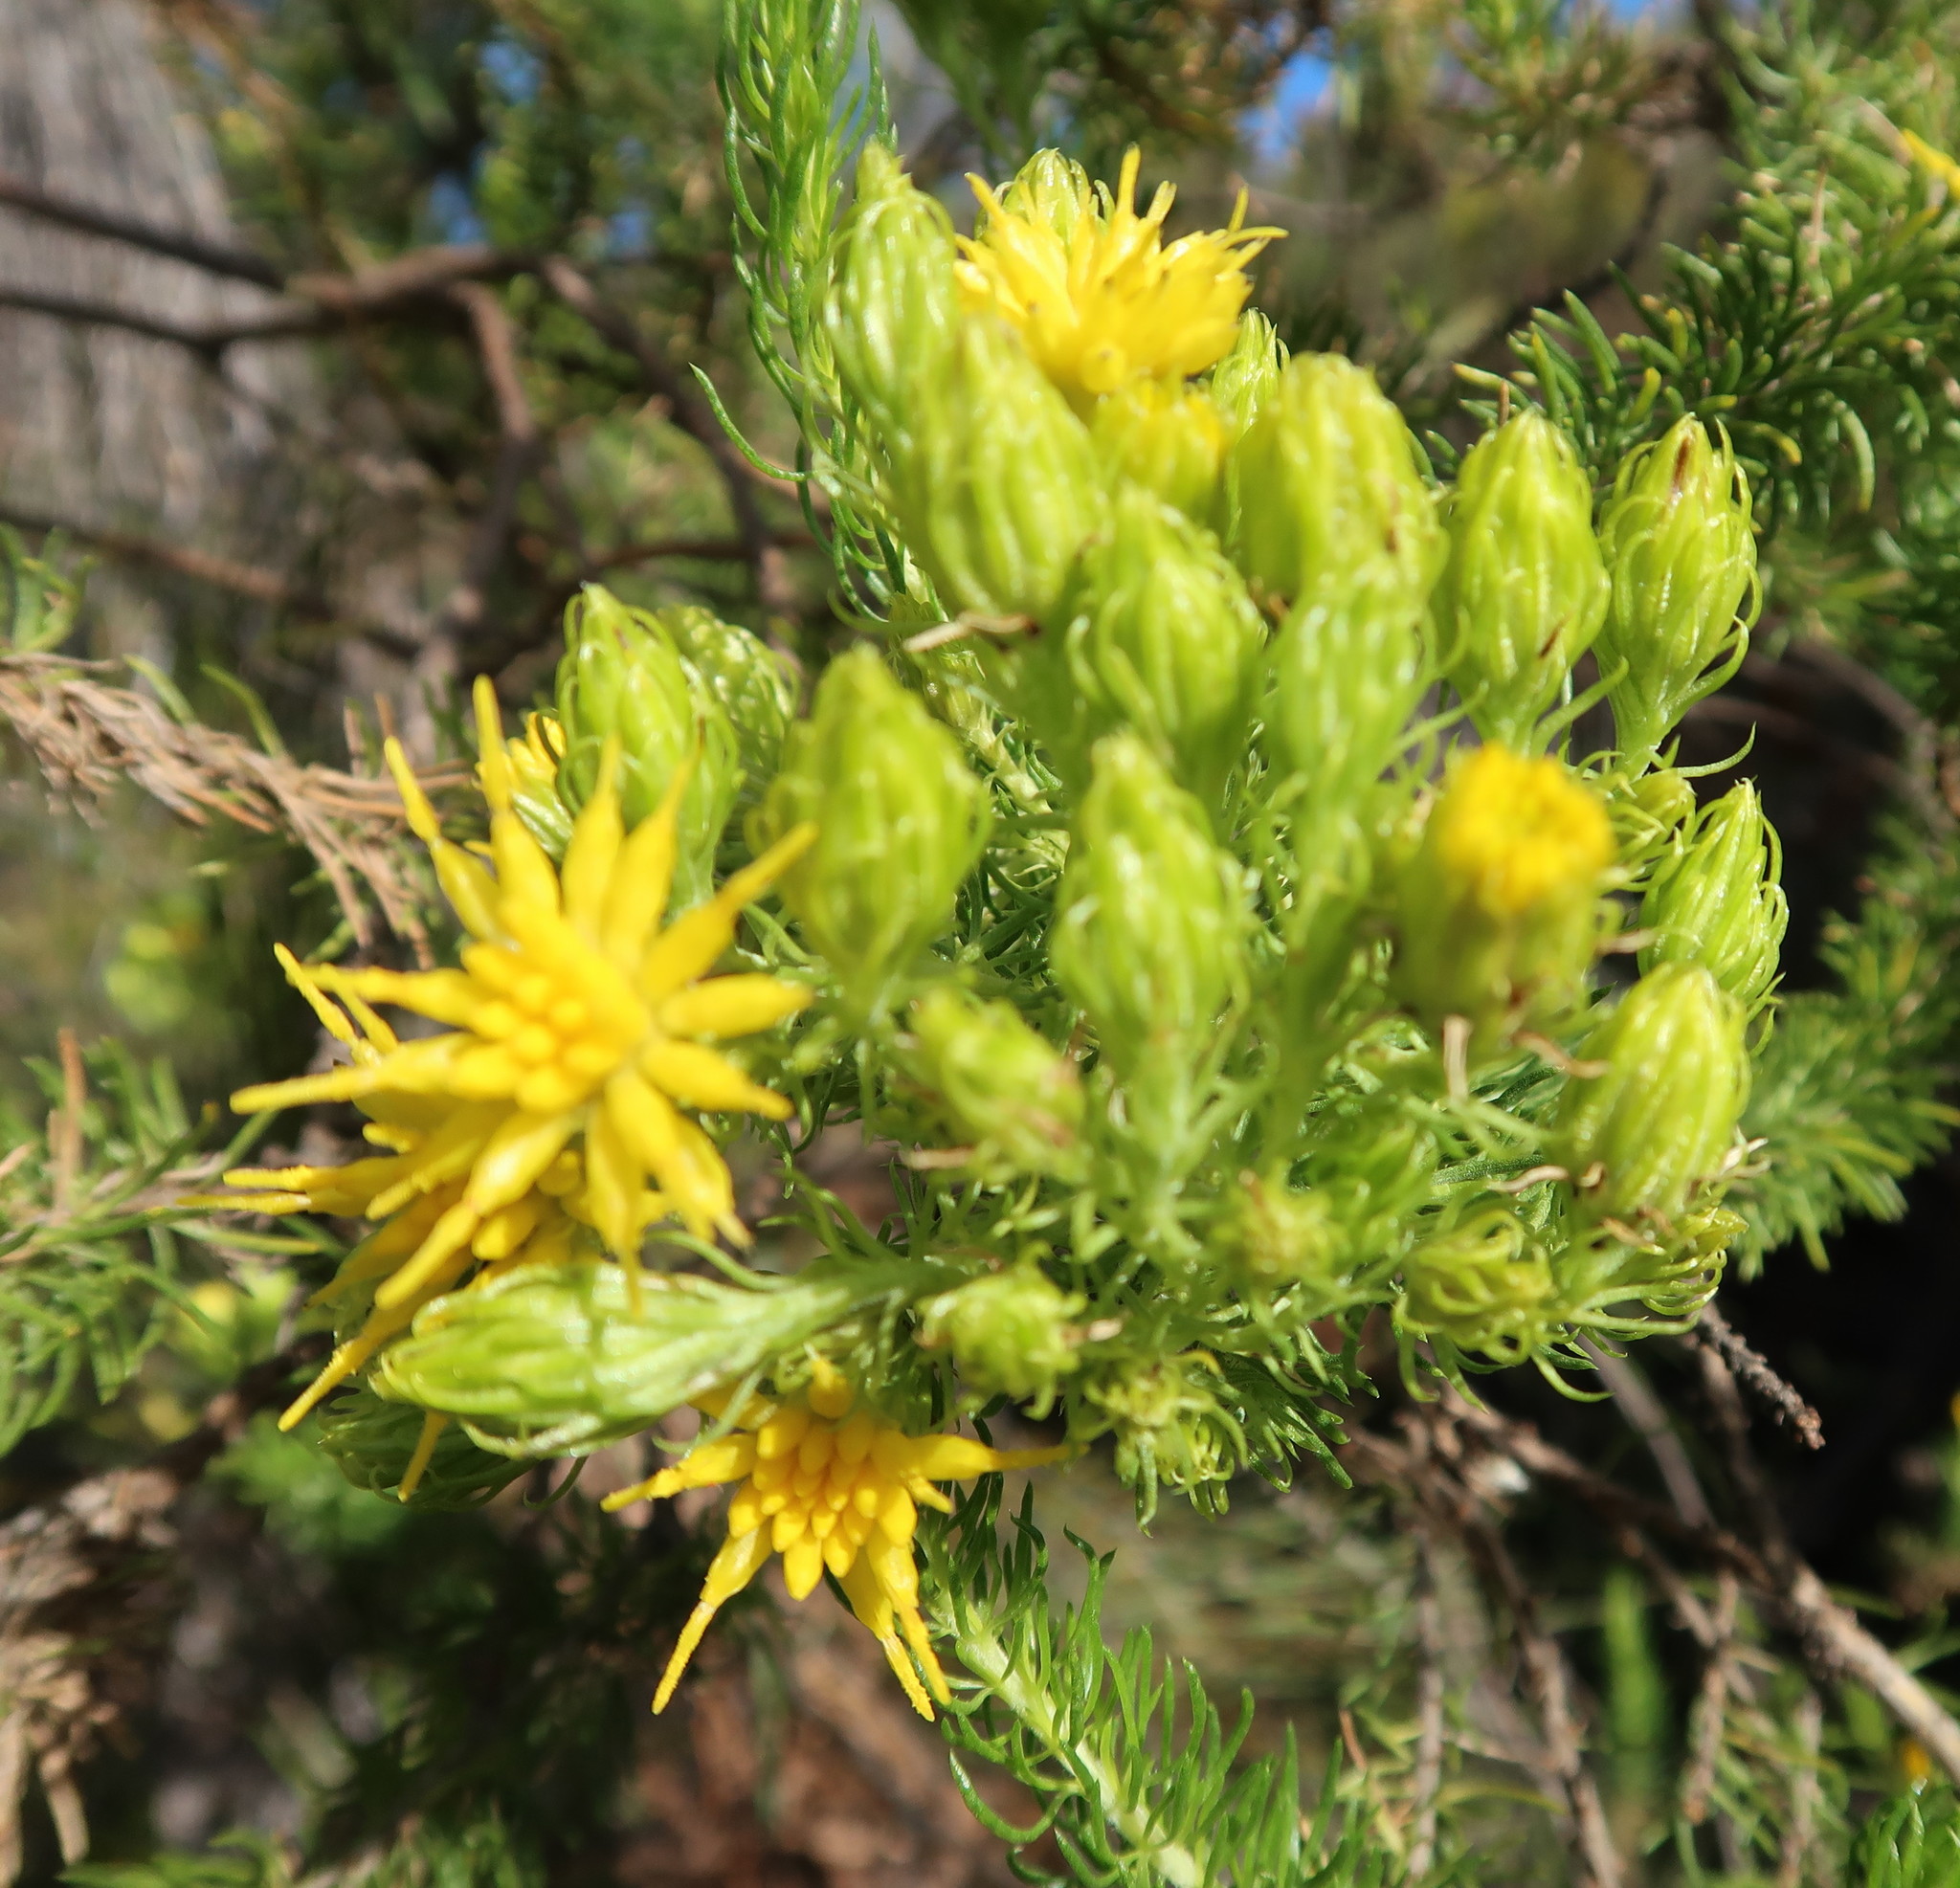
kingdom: Plantae
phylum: Tracheophyta
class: Magnoliopsida
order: Asterales
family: Asteraceae
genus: Pteronia
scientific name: Pteronia camphorata
